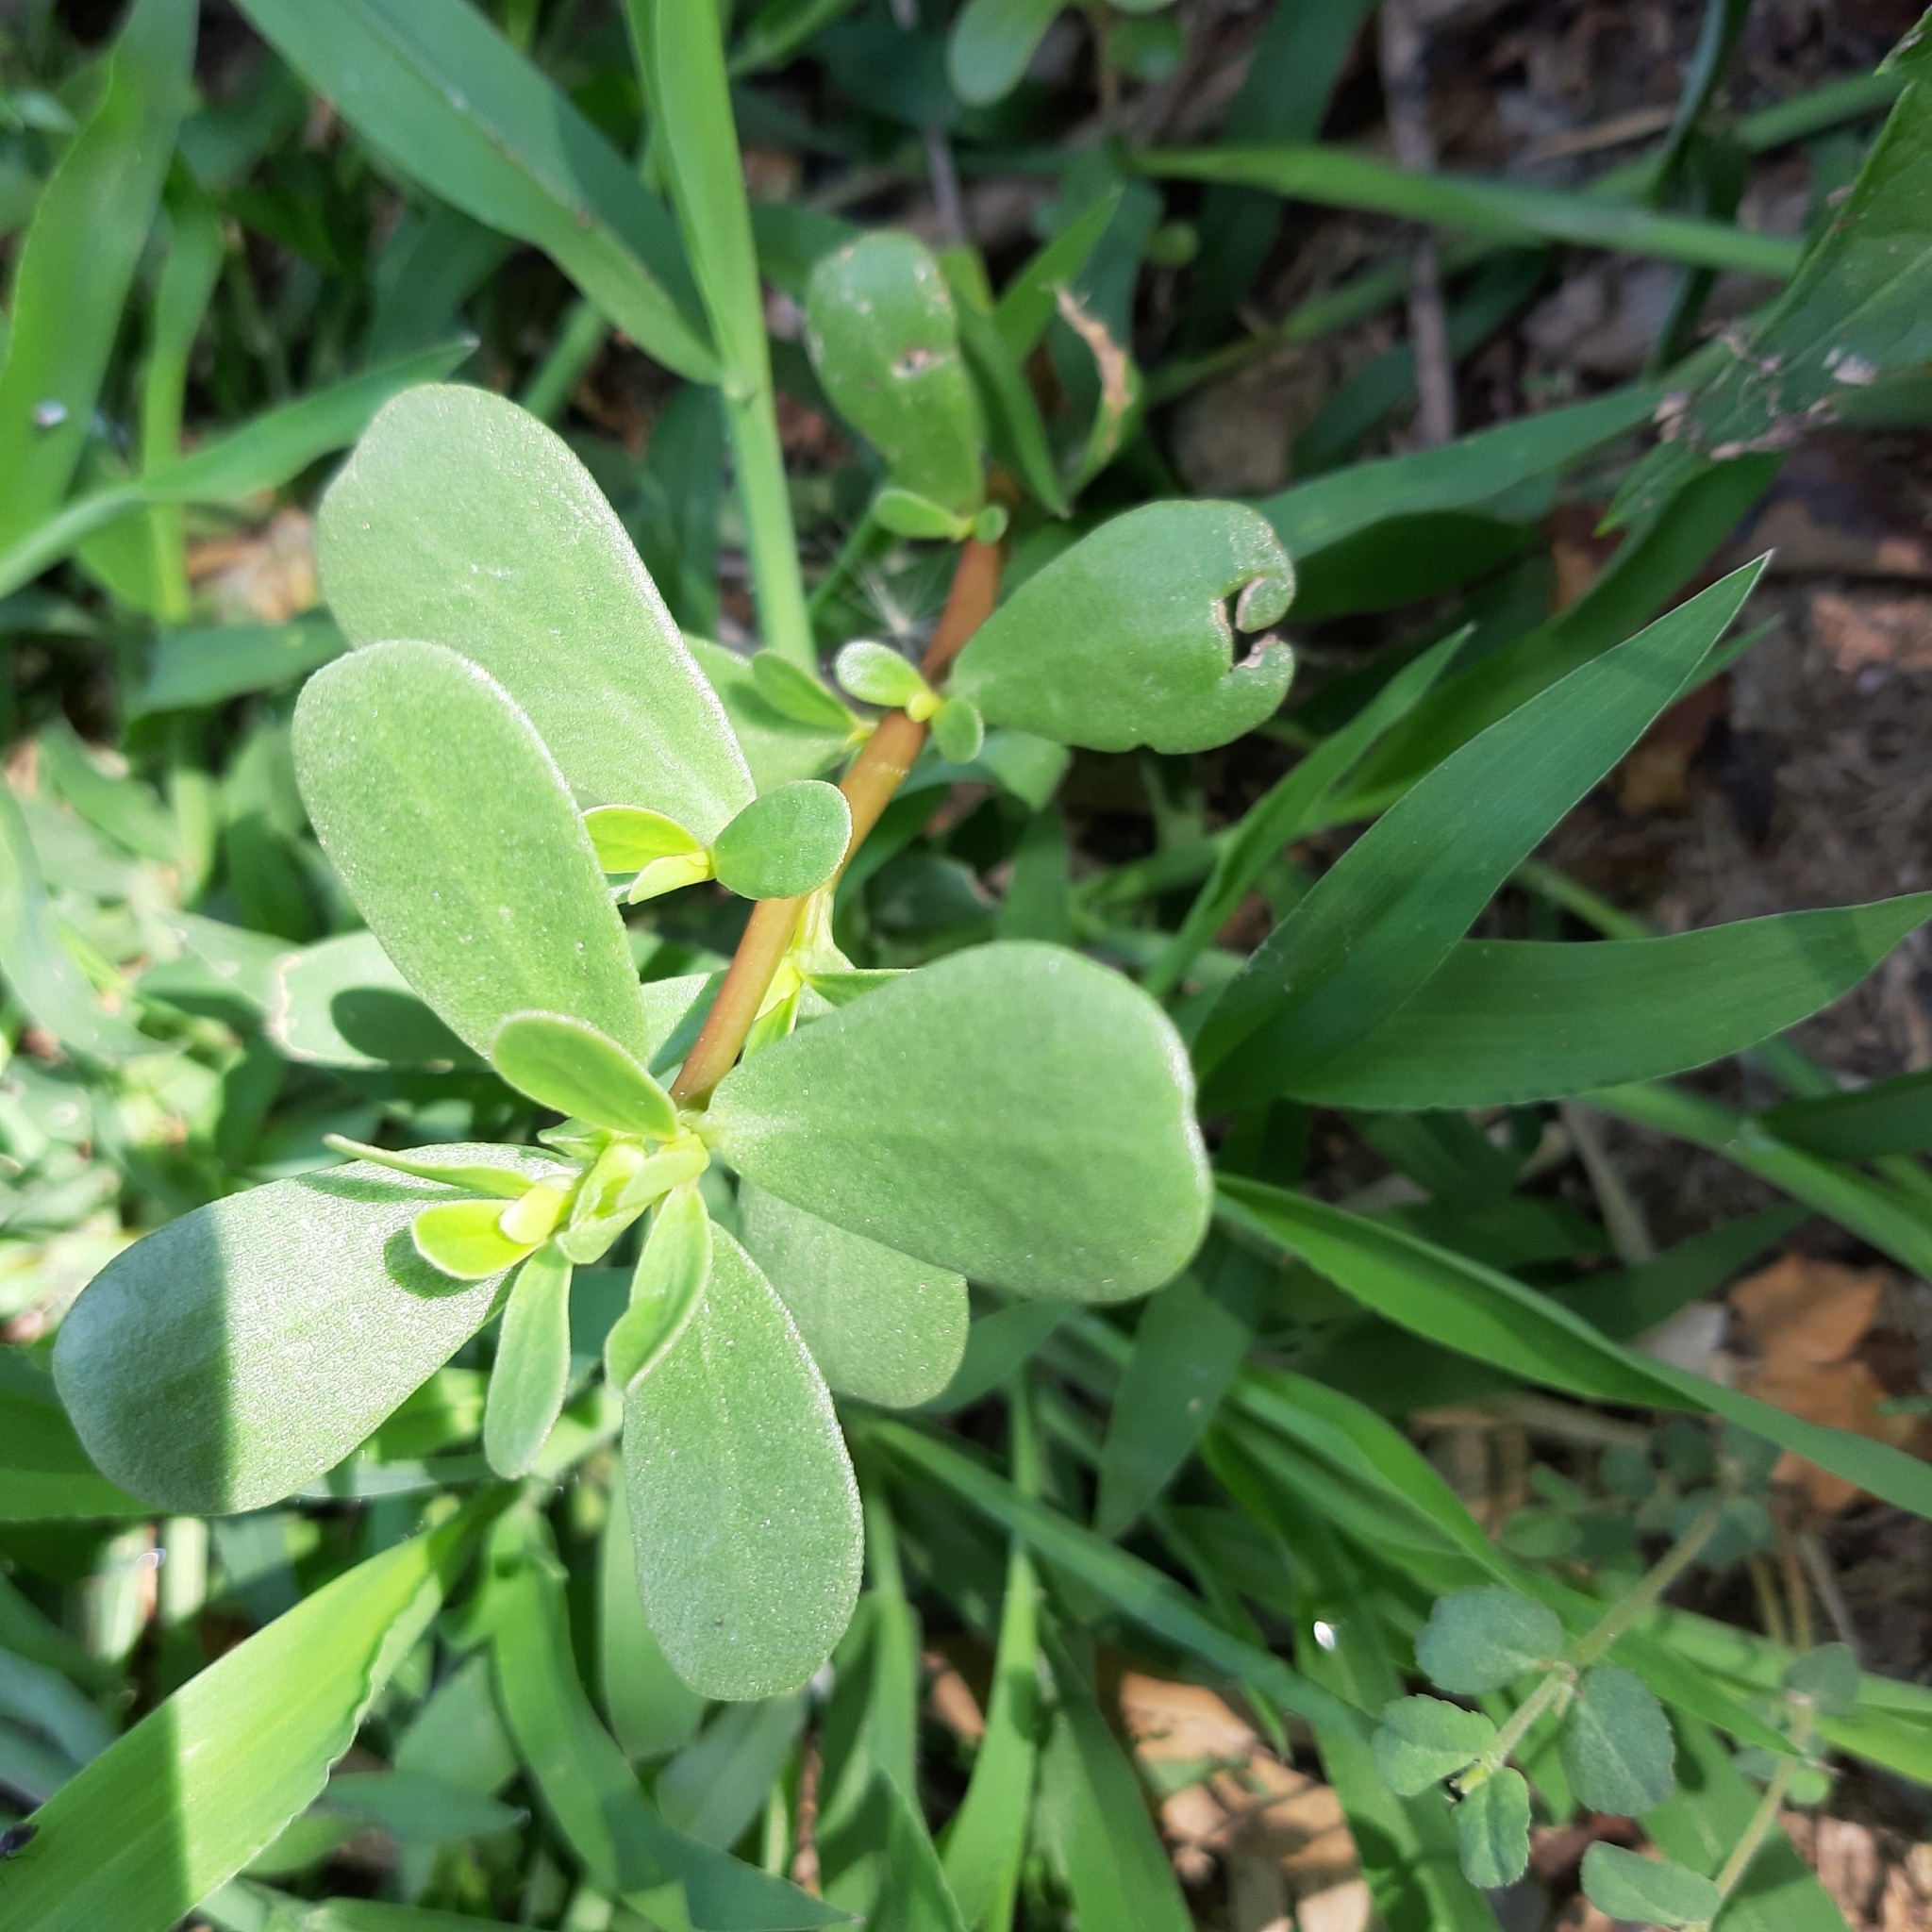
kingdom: Plantae
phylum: Tracheophyta
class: Magnoliopsida
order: Caryophyllales
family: Portulacaceae
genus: Portulaca
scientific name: Portulaca oleracea
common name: Common purslane
